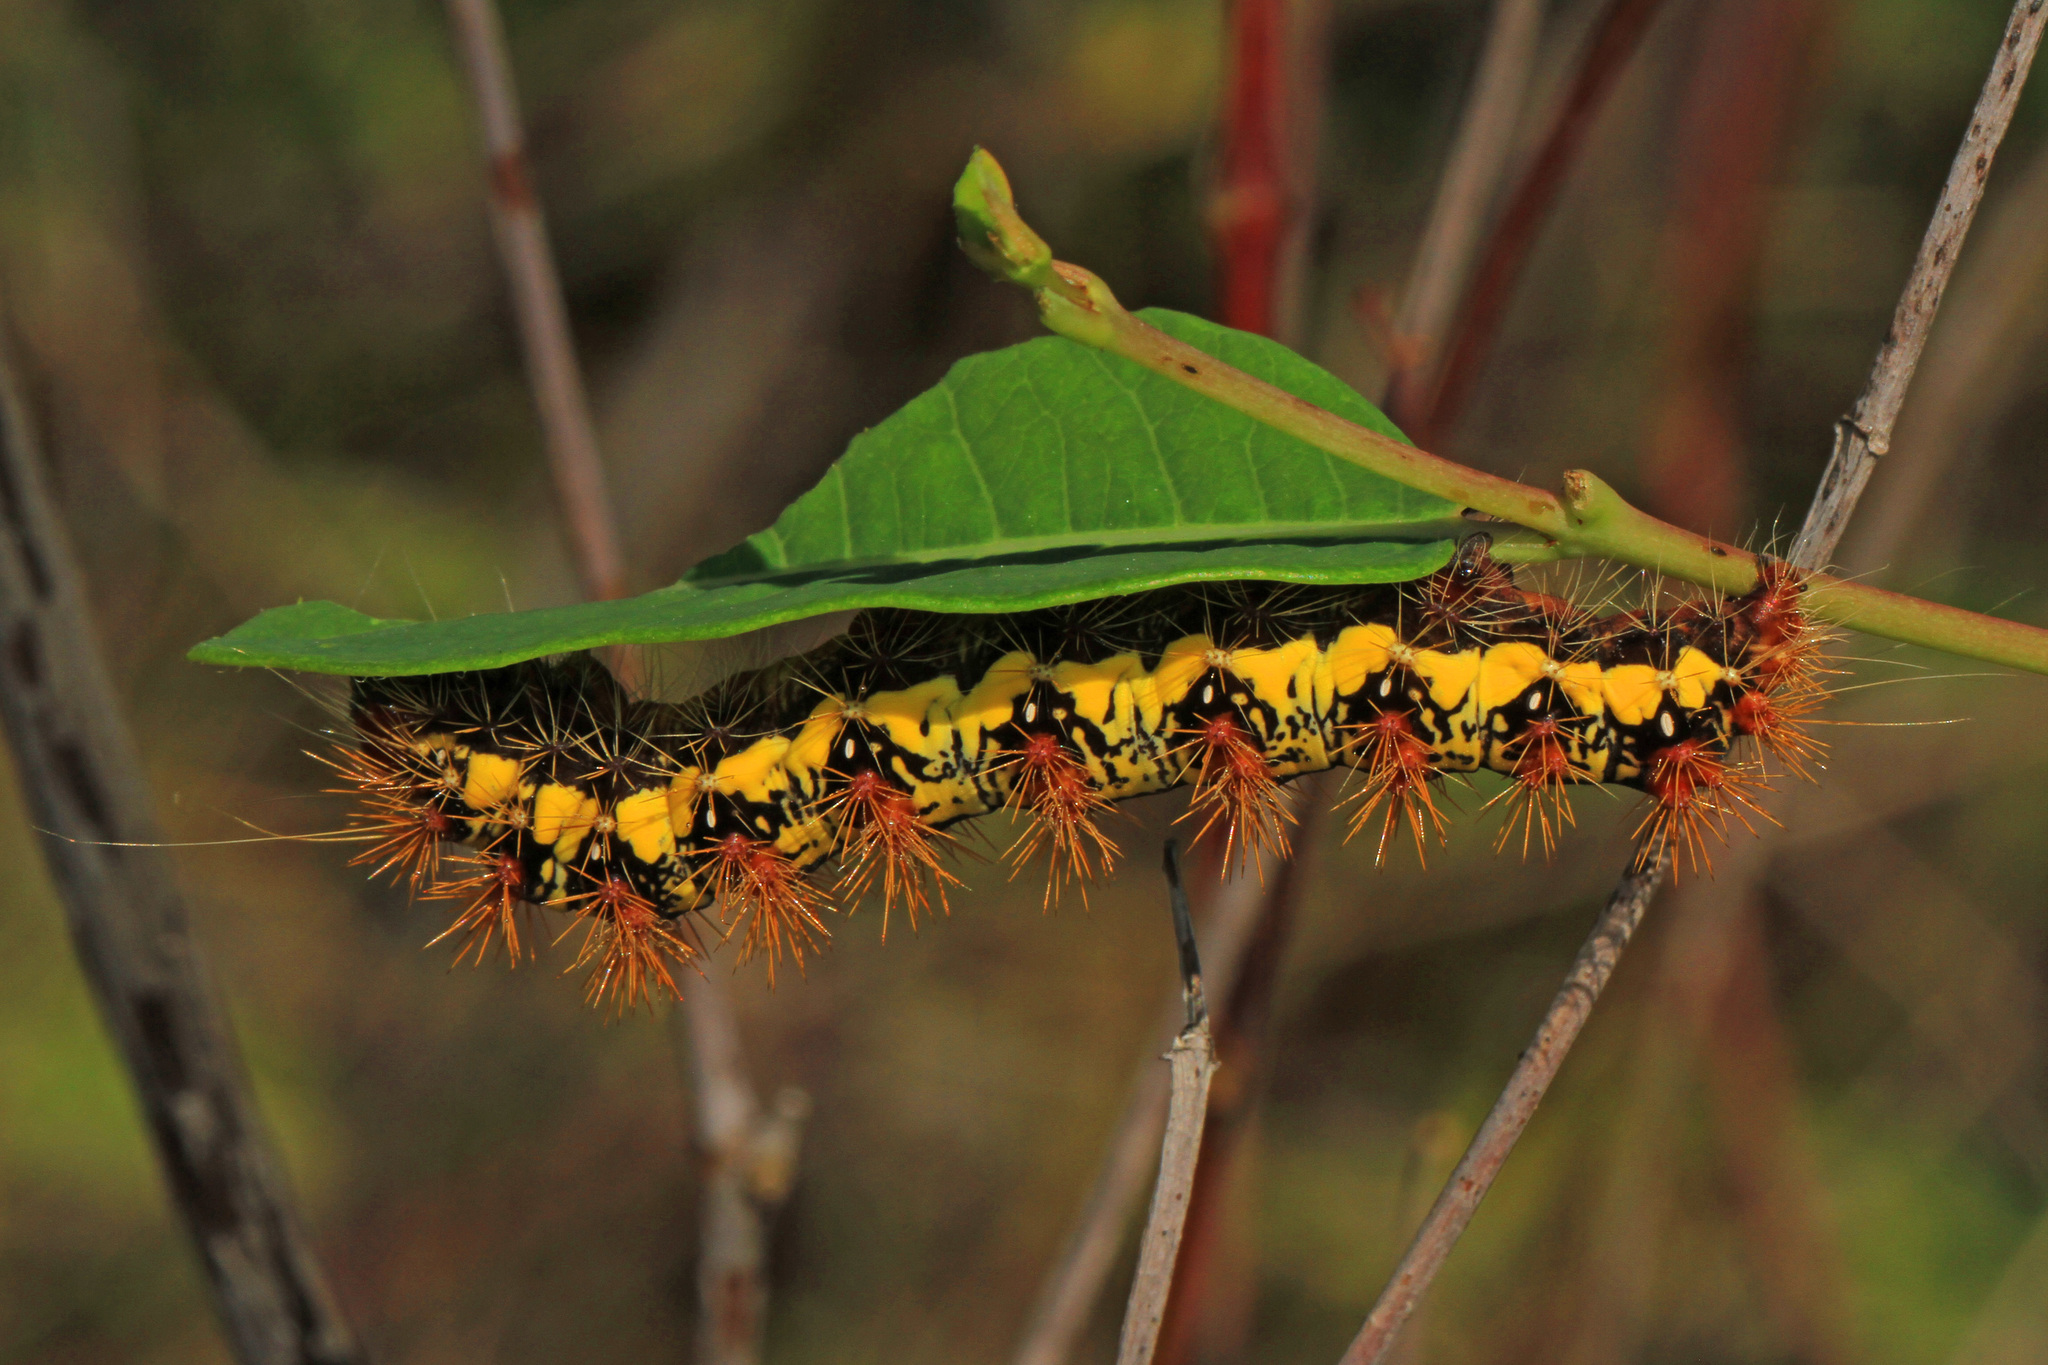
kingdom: Animalia
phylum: Arthropoda
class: Insecta
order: Lepidoptera
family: Noctuidae
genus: Acronicta
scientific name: Acronicta oblinita
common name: Smeared dagger
